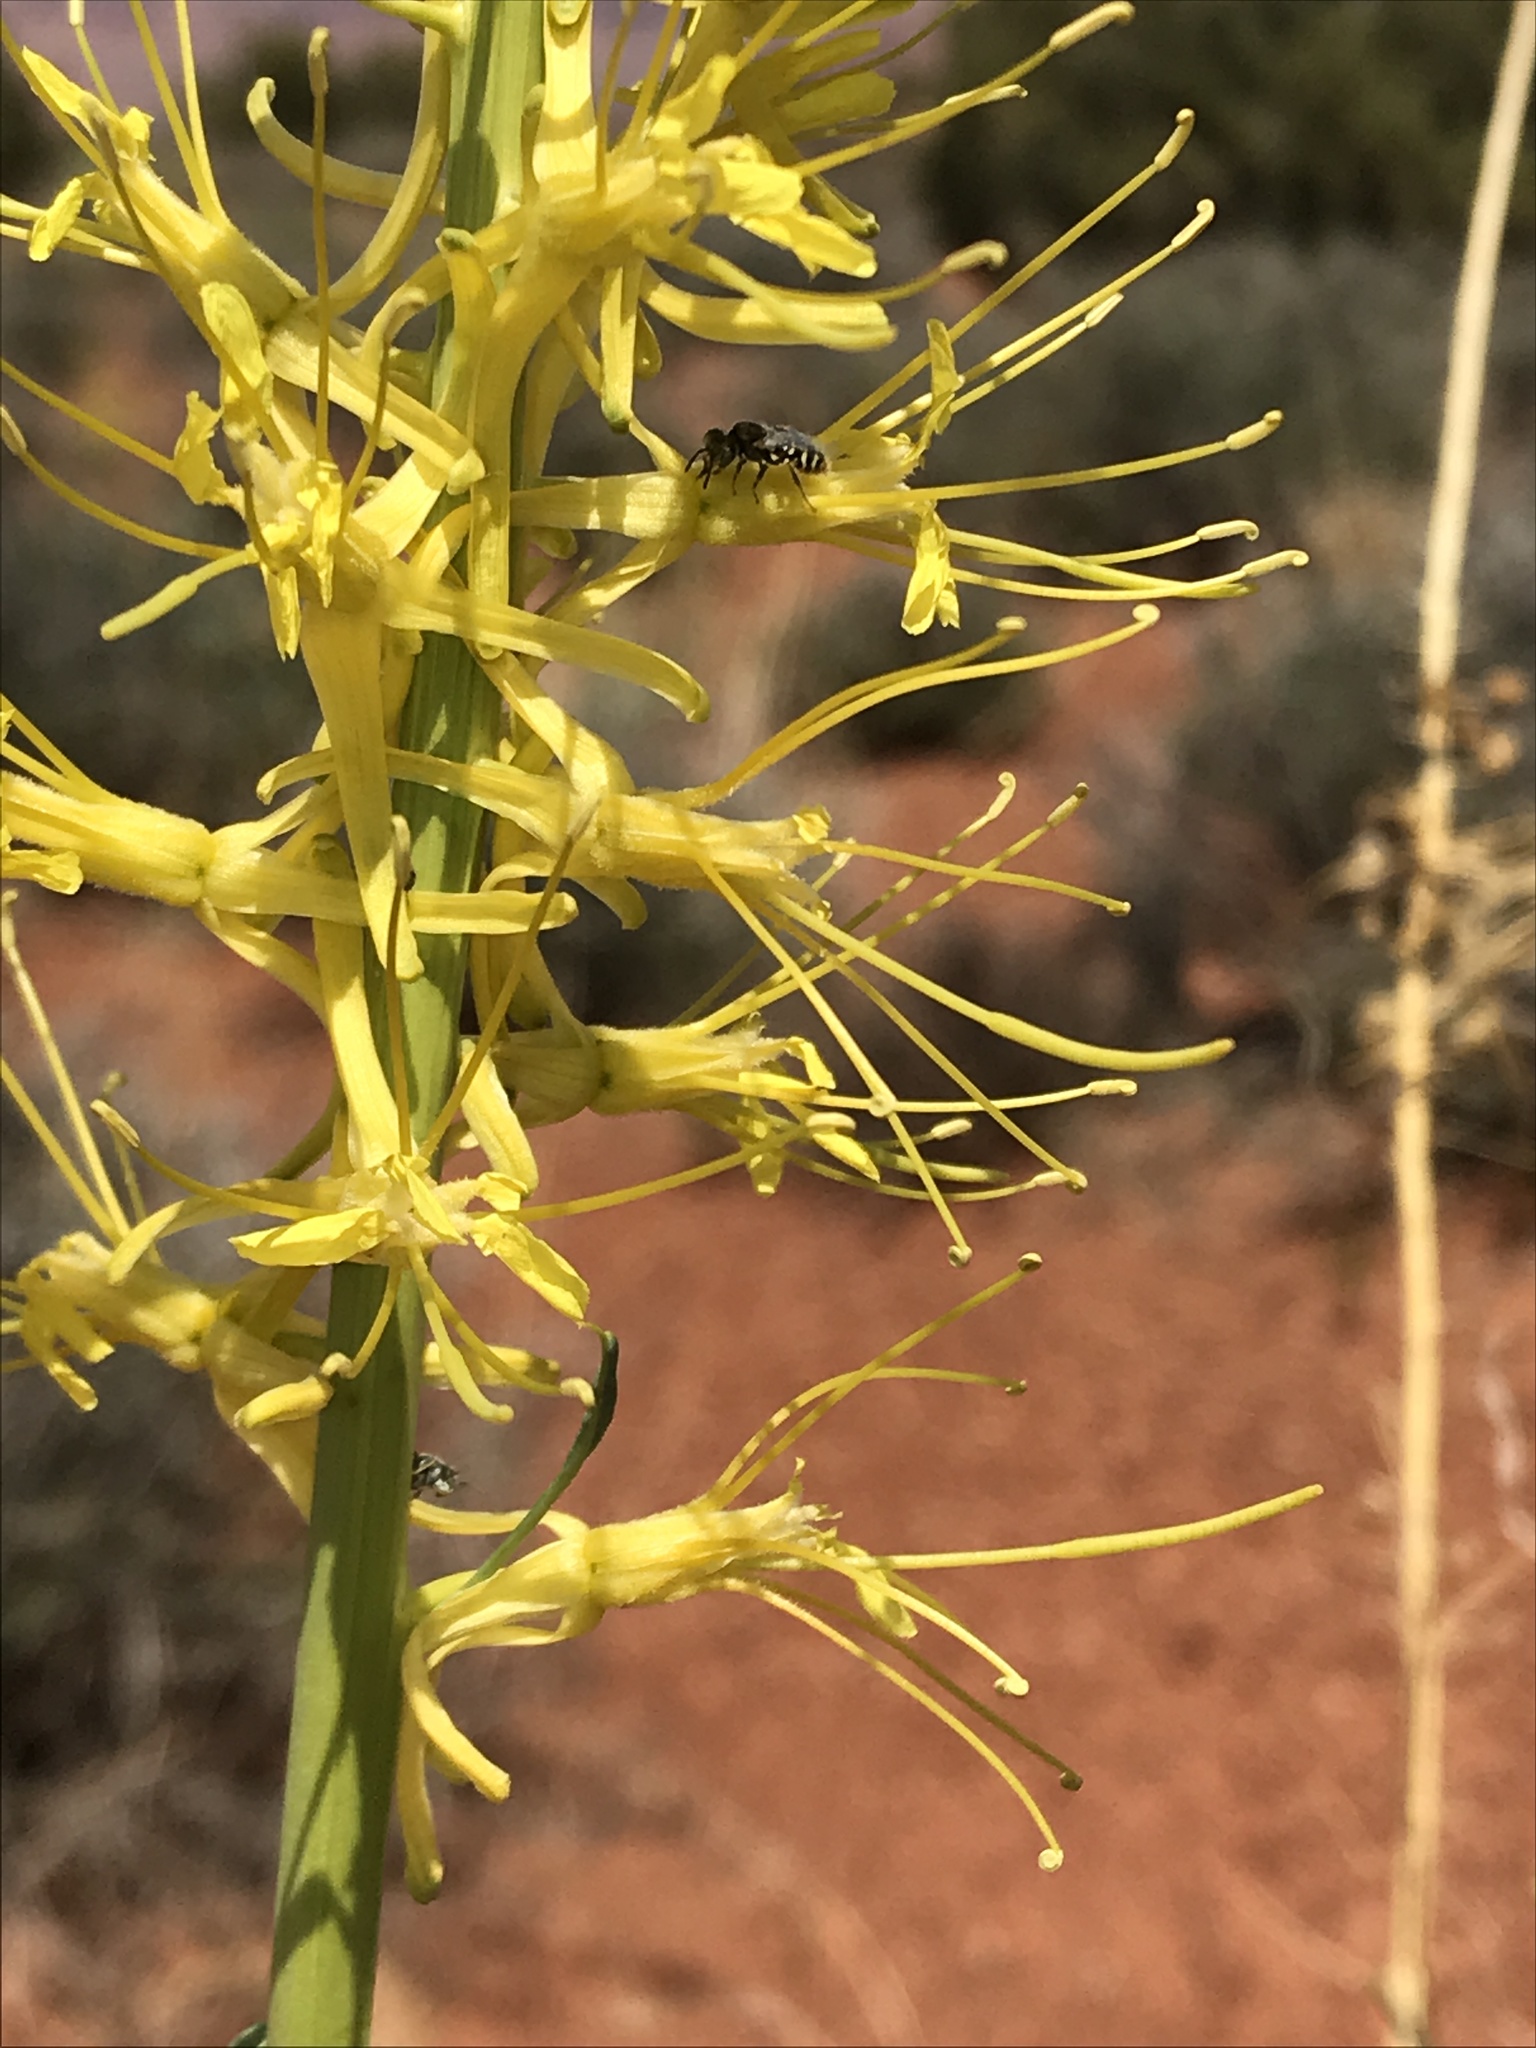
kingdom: Plantae
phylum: Tracheophyta
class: Magnoliopsida
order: Brassicales
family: Brassicaceae
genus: Stanleya
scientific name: Stanleya pinnata
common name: Prince's-plume
